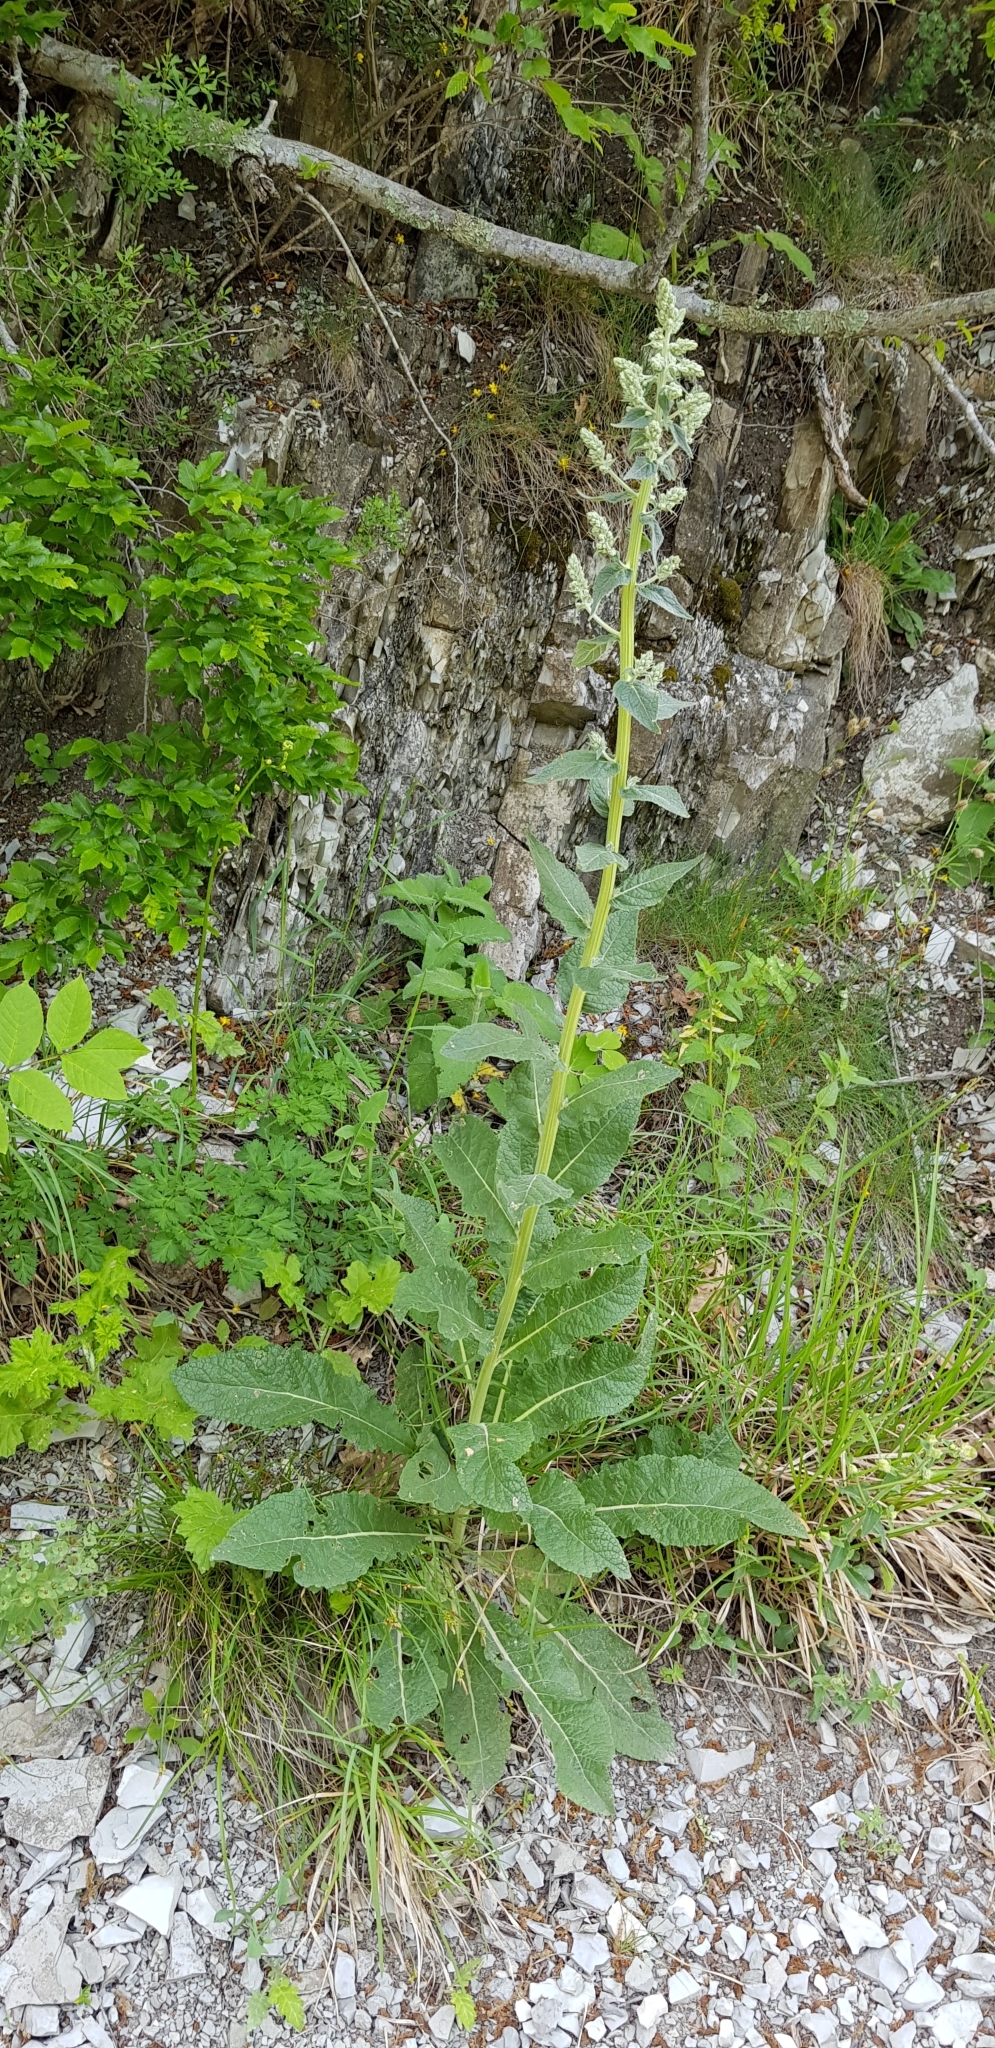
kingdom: Plantae
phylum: Tracheophyta
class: Magnoliopsida
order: Lamiales
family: Scrophulariaceae
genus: Verbascum
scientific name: Verbascum lychnitis
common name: White mullein
